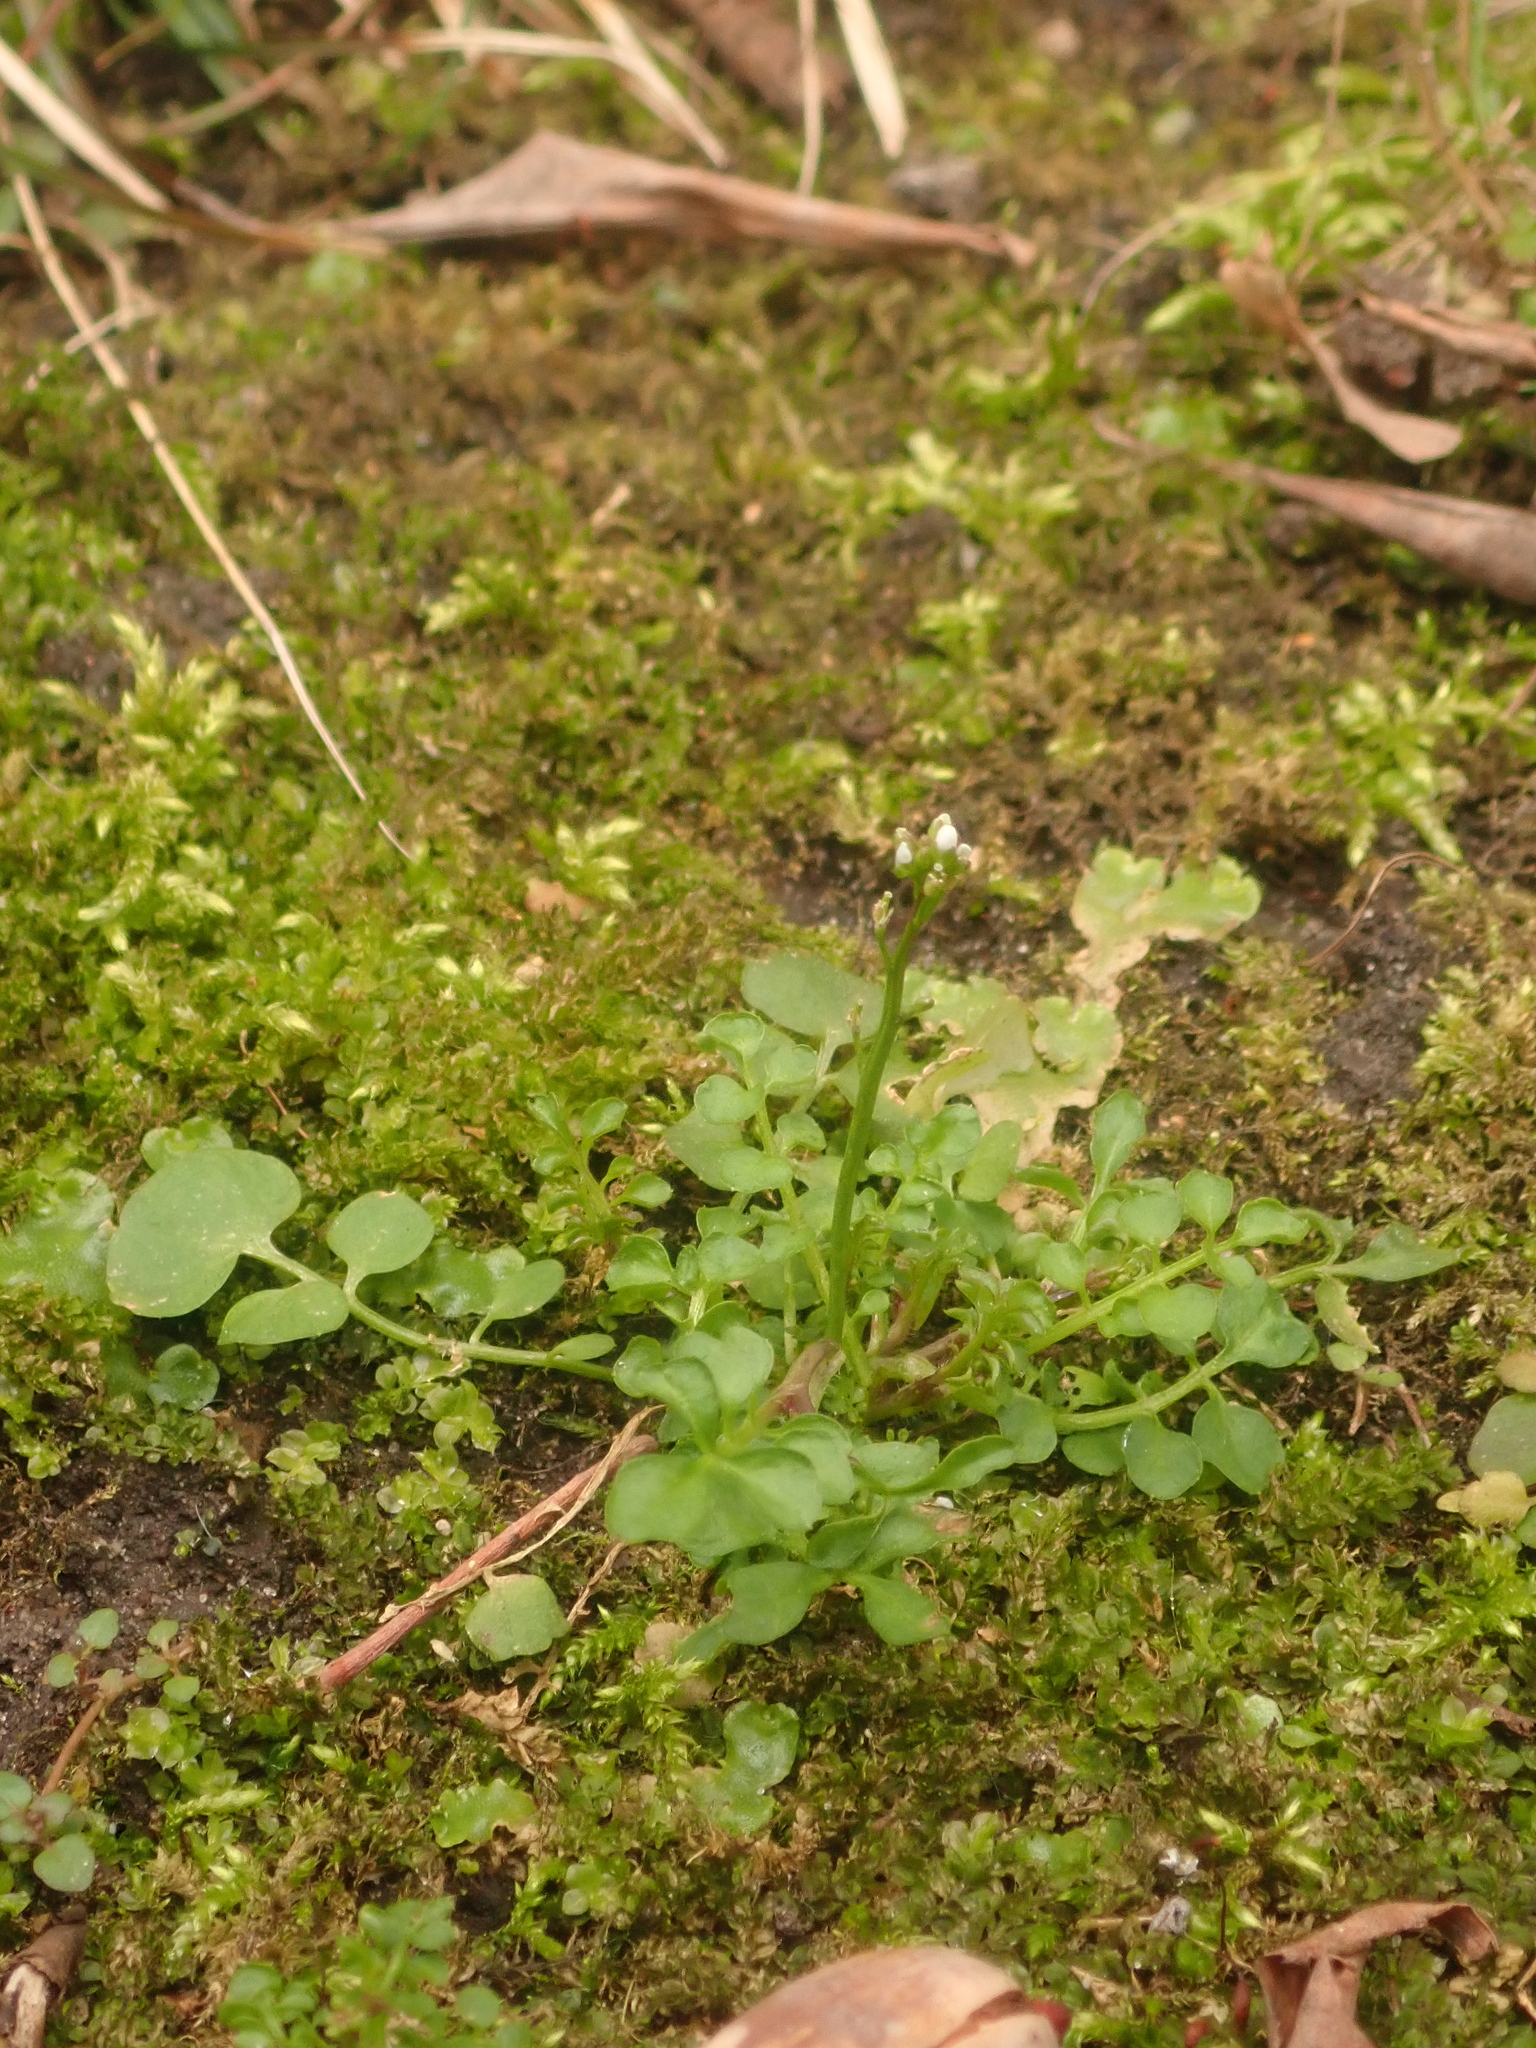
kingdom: Plantae
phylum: Tracheophyta
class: Magnoliopsida
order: Brassicales
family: Brassicaceae
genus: Cardamine
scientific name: Cardamine hirsuta
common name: Hairy bittercress
